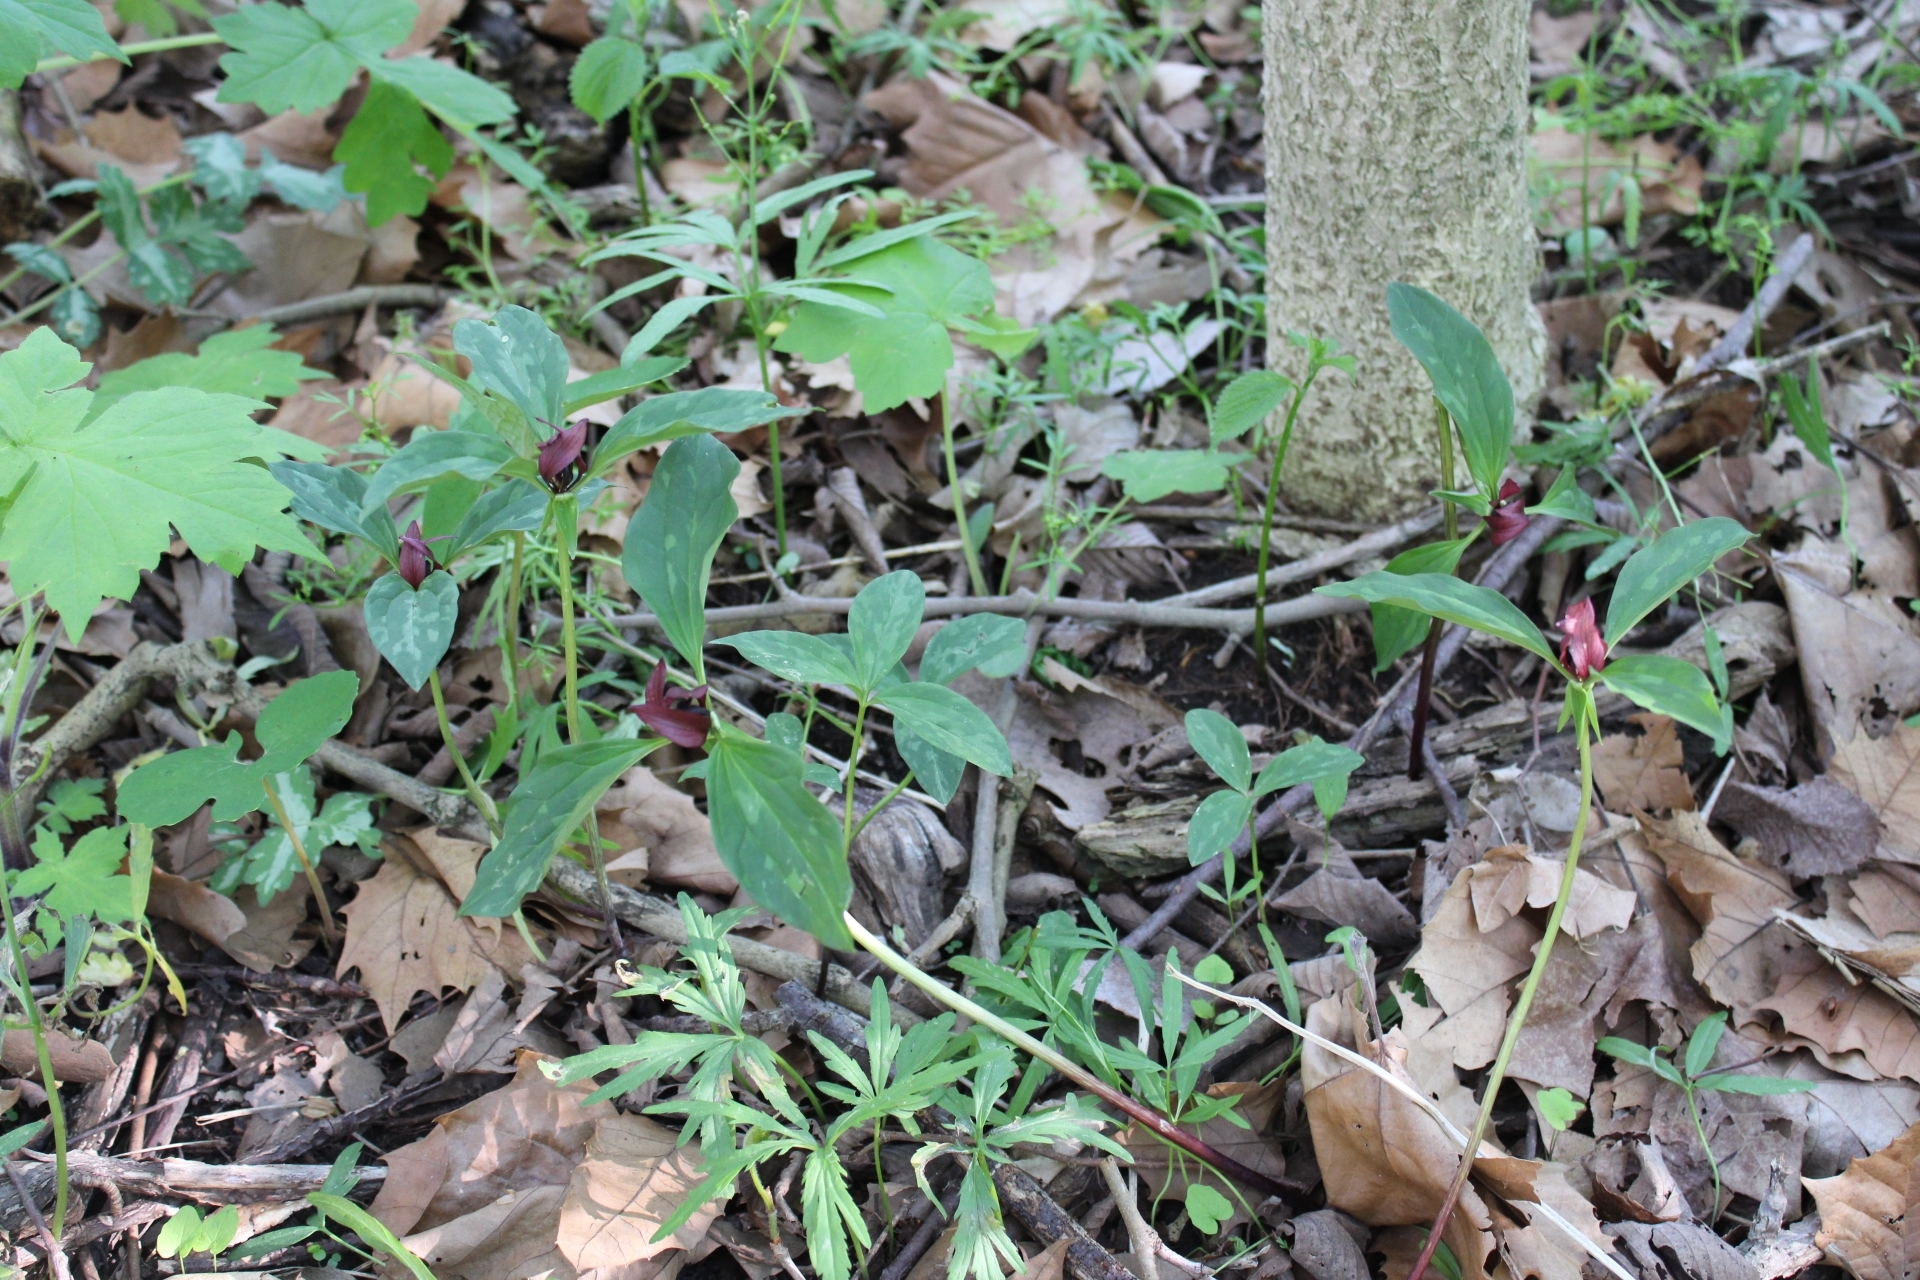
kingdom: Plantae
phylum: Tracheophyta
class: Liliopsida
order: Liliales
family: Melanthiaceae
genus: Trillium
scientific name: Trillium recurvatum
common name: Bloody butcher
